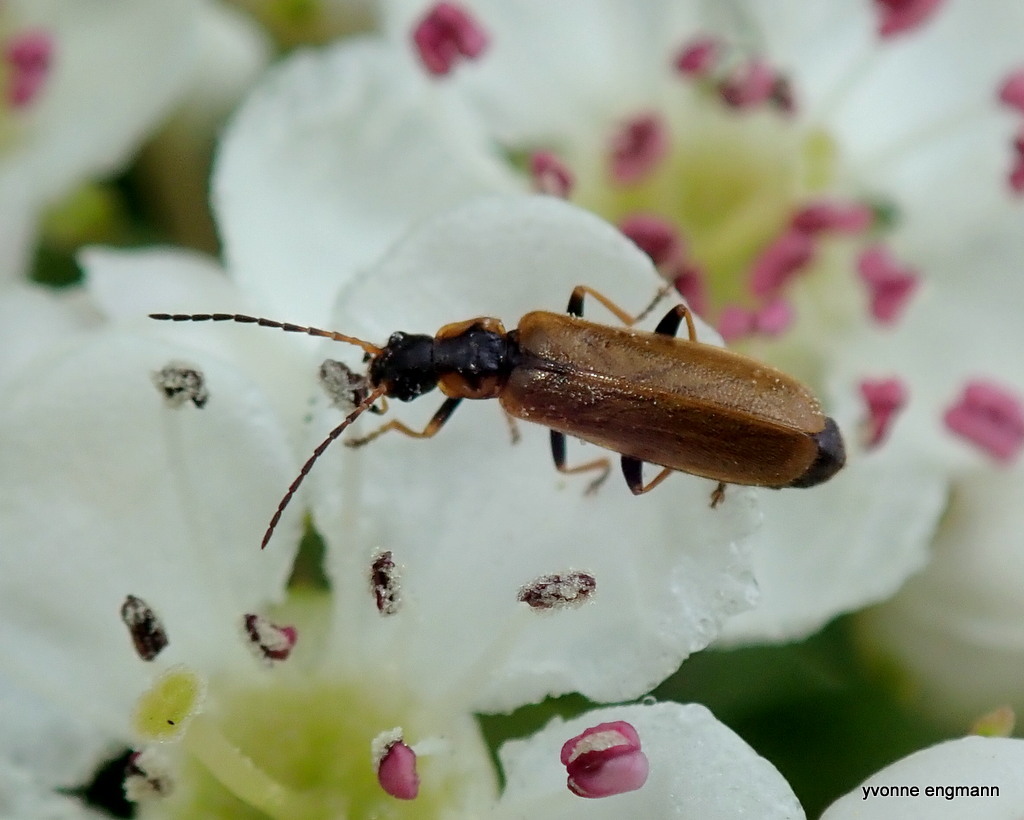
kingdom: Animalia
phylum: Arthropoda
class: Insecta
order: Coleoptera
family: Cantharidae
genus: Rhagonycha
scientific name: Rhagonycha nigriventris
